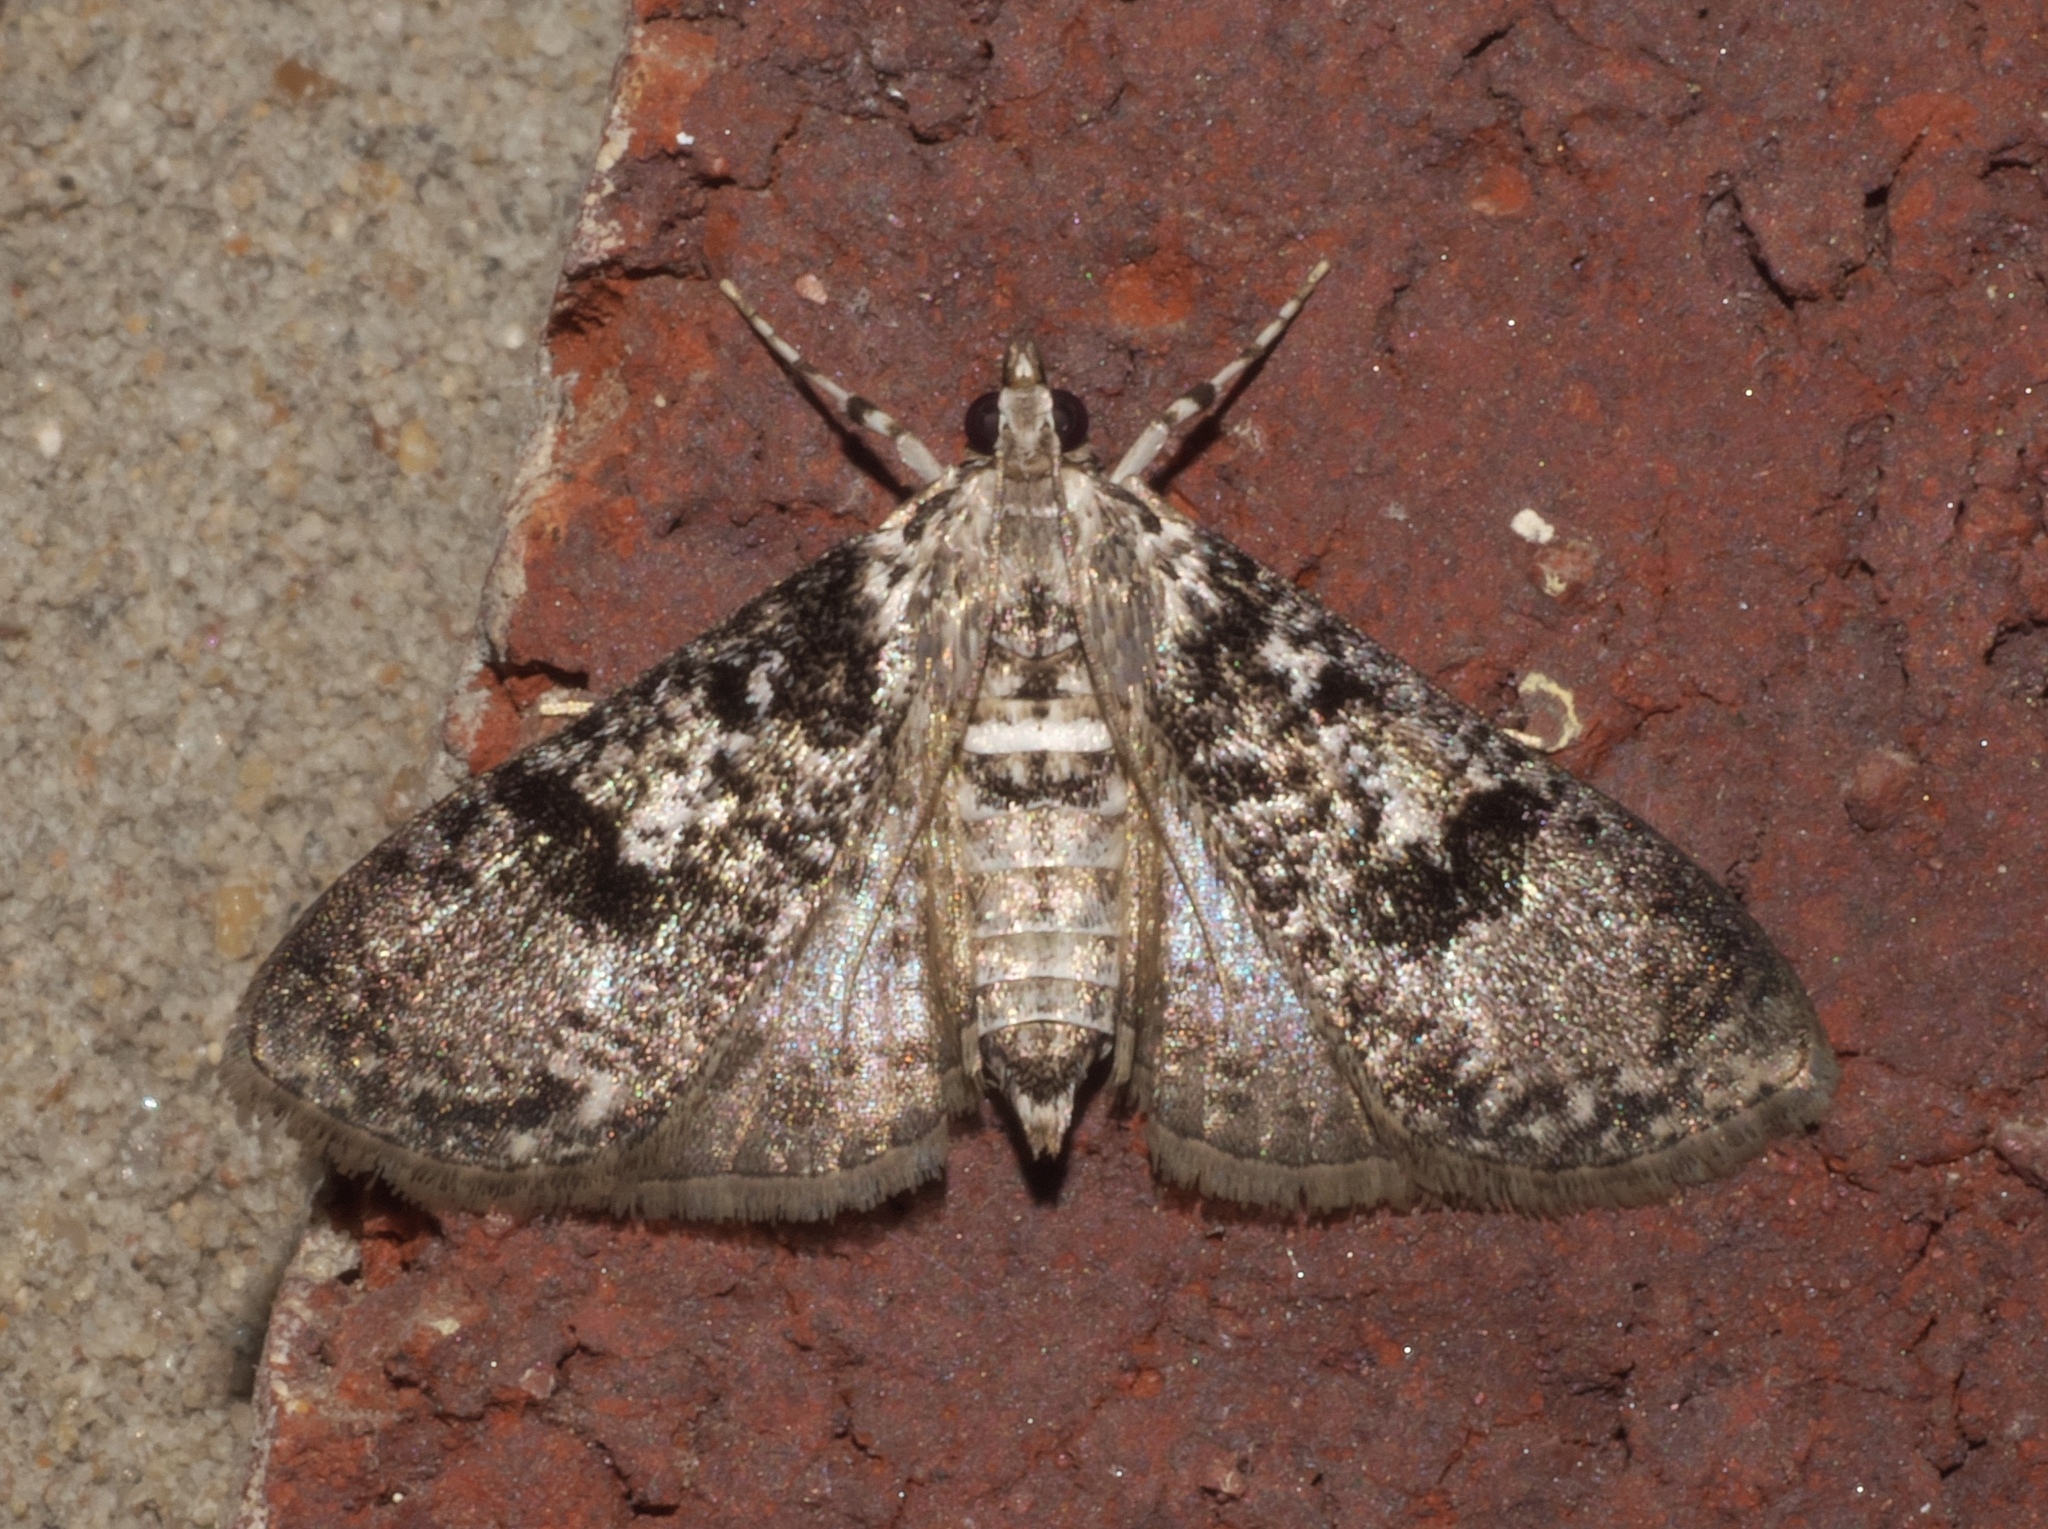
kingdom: Animalia
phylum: Arthropoda
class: Insecta
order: Lepidoptera
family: Crambidae
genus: Palpita
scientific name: Palpita magniferalis
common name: Splendid palpita moth
